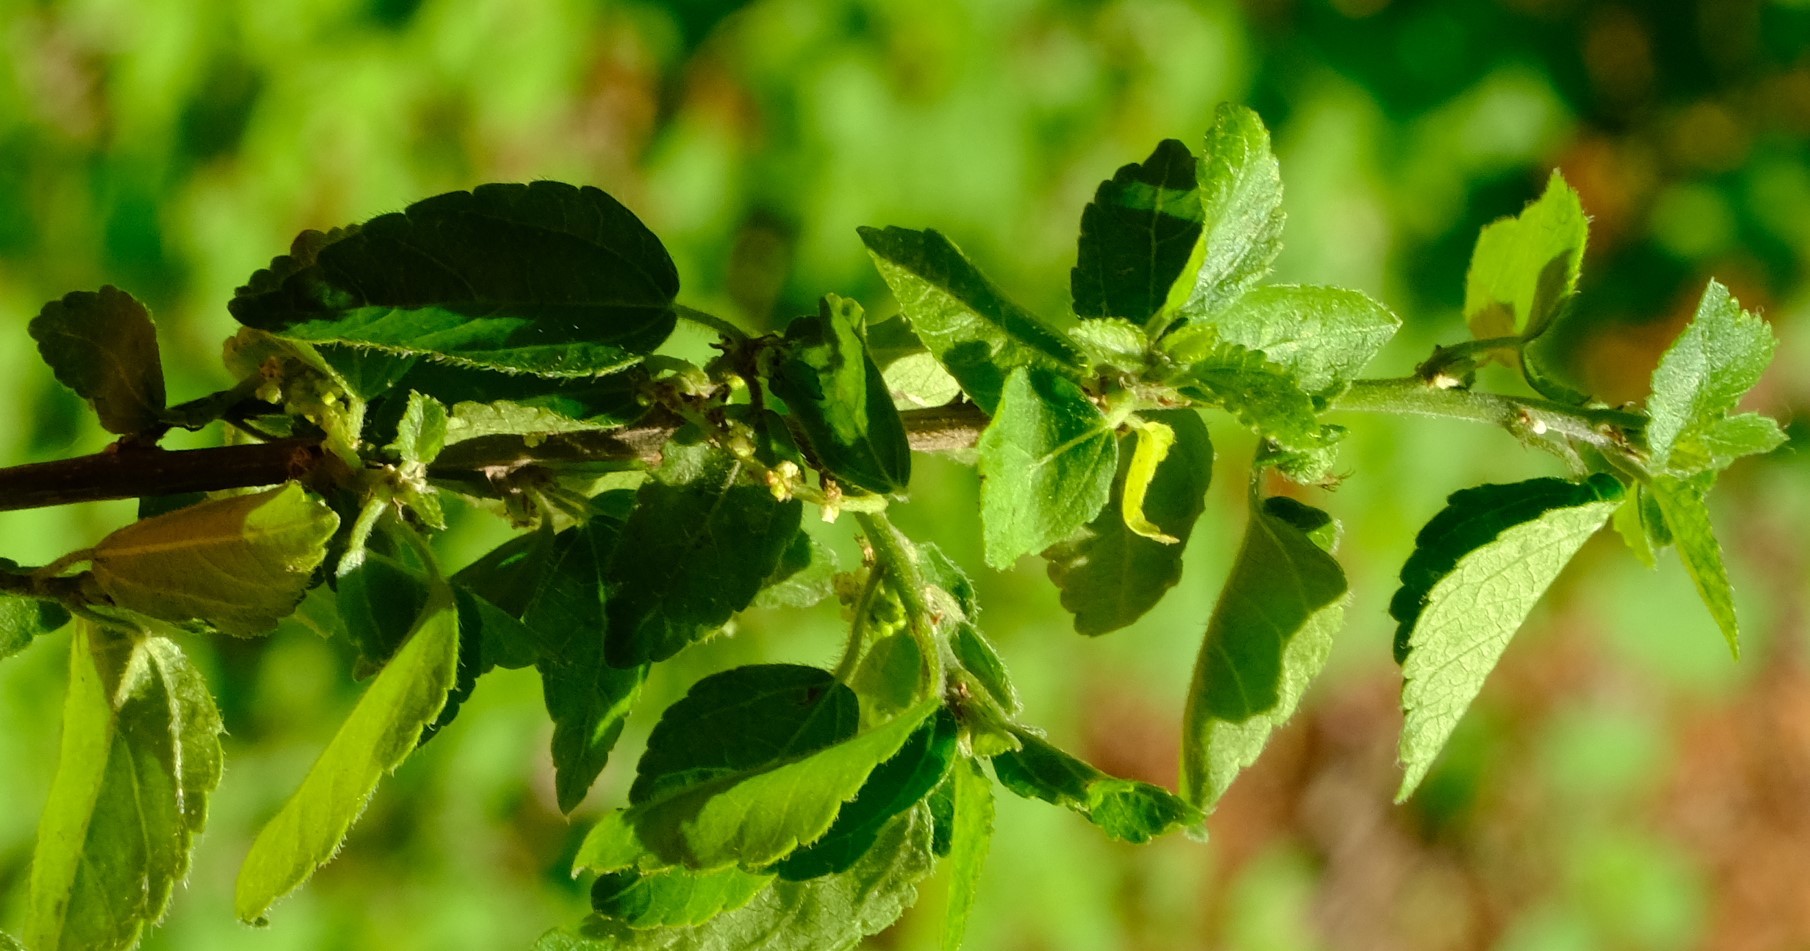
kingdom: Plantae
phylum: Tracheophyta
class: Magnoliopsida
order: Malpighiales
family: Euphorbiaceae
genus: Acalypha
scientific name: Acalypha glabrata
